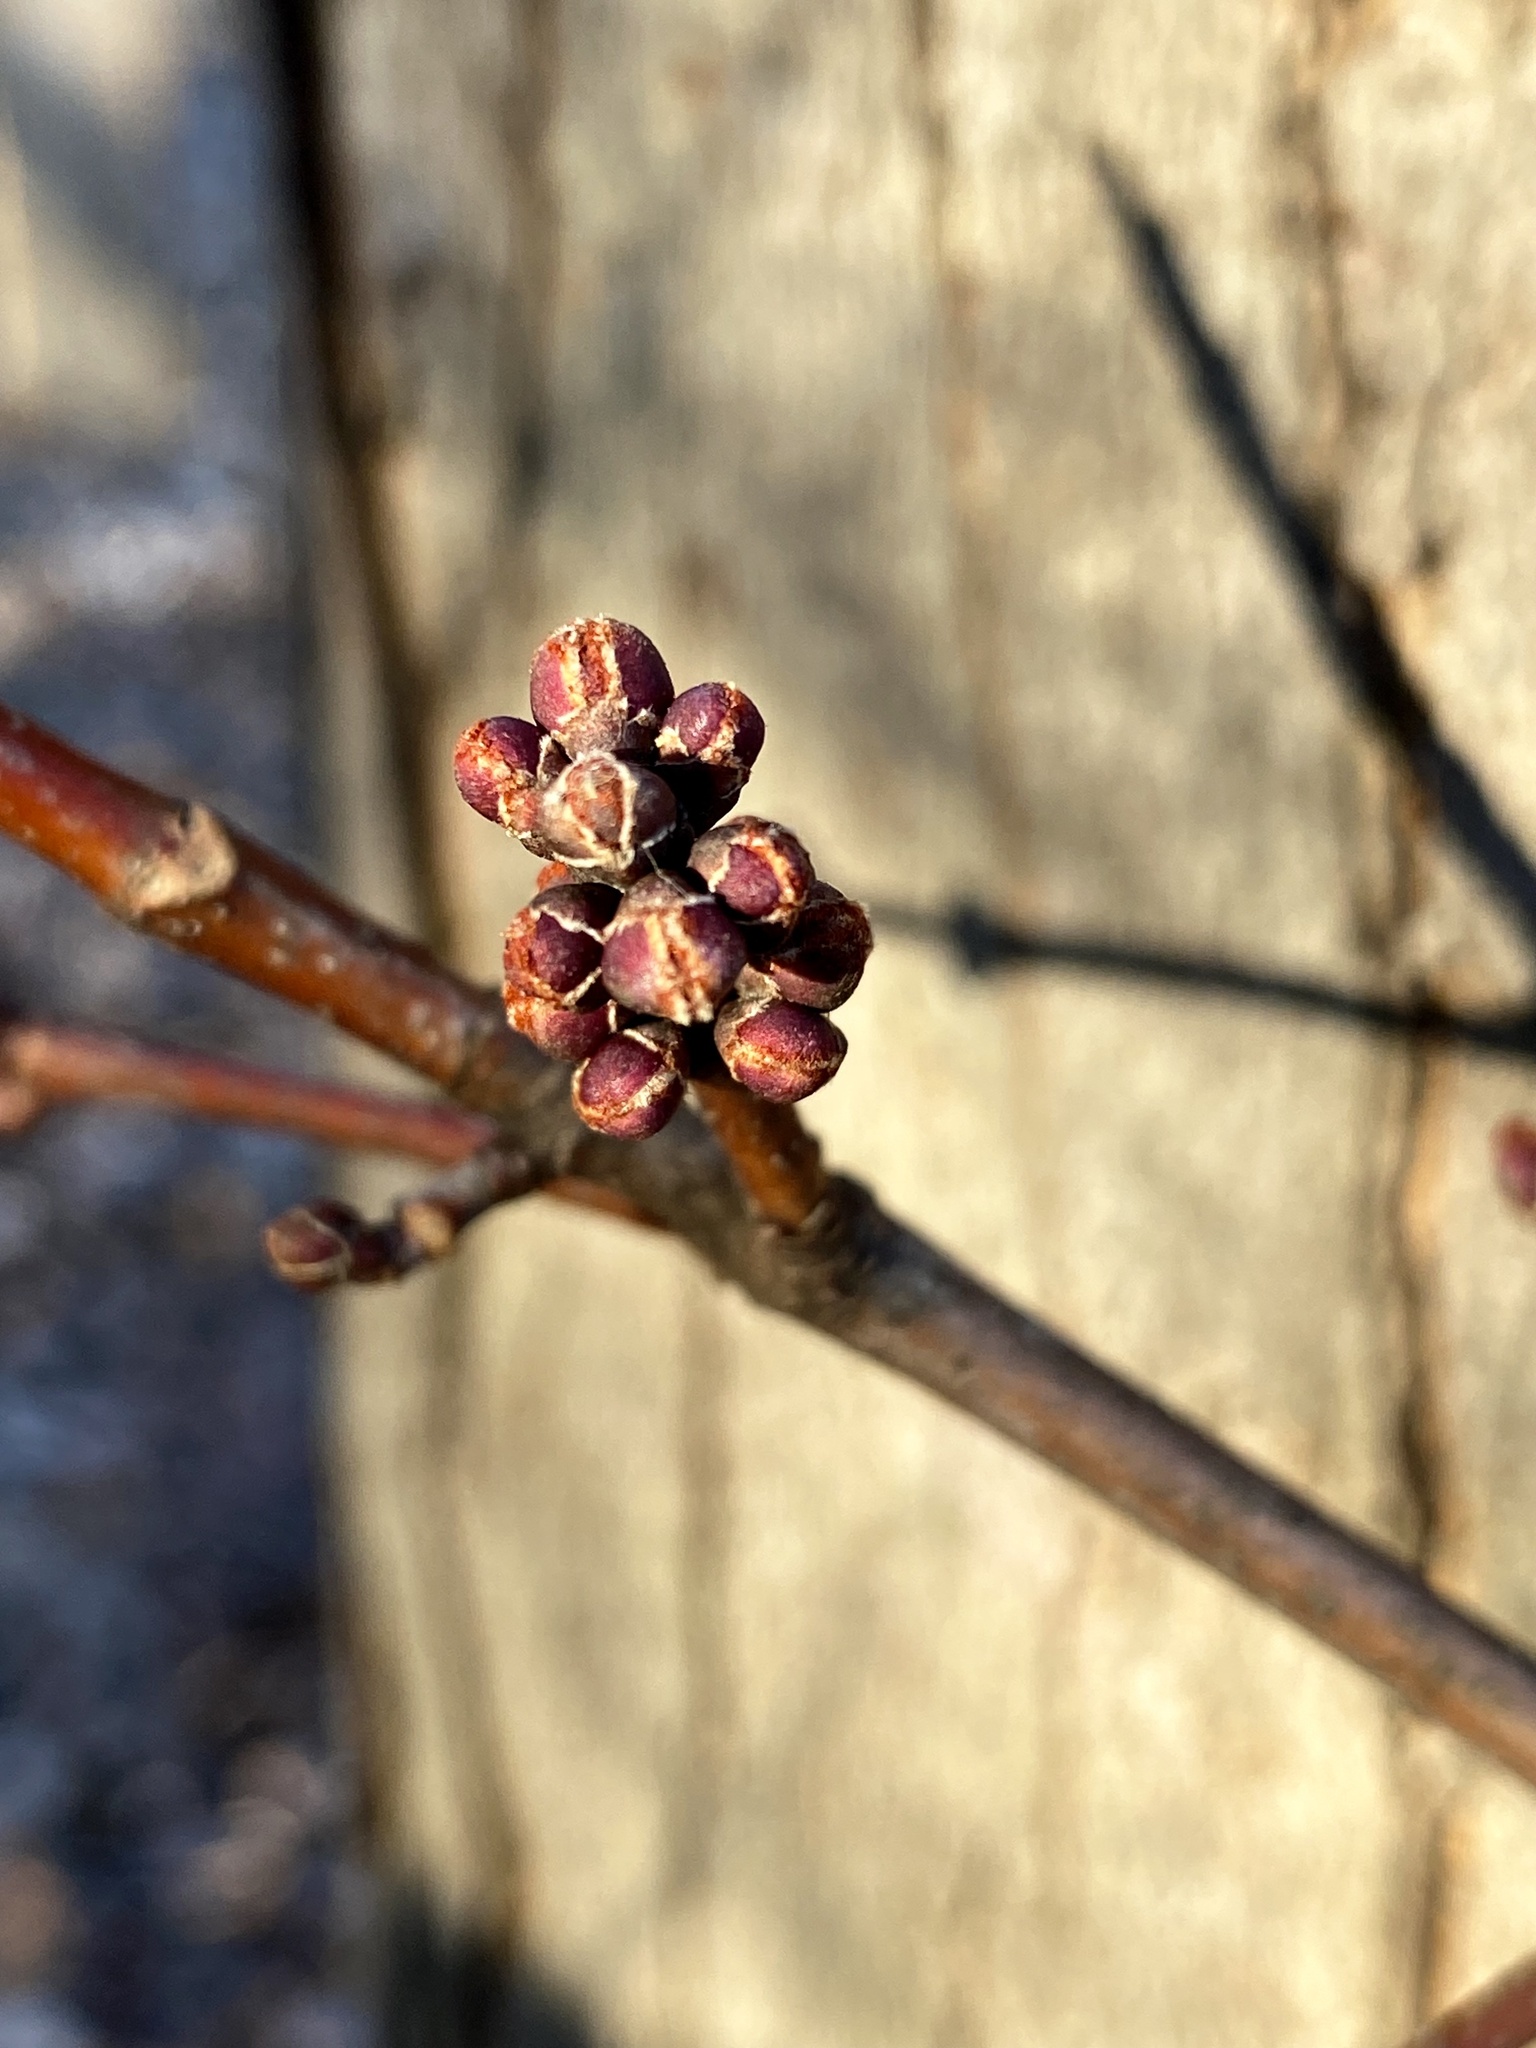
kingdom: Plantae
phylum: Tracheophyta
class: Magnoliopsida
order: Sapindales
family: Sapindaceae
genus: Acer
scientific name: Acer rubrum
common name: Red maple
